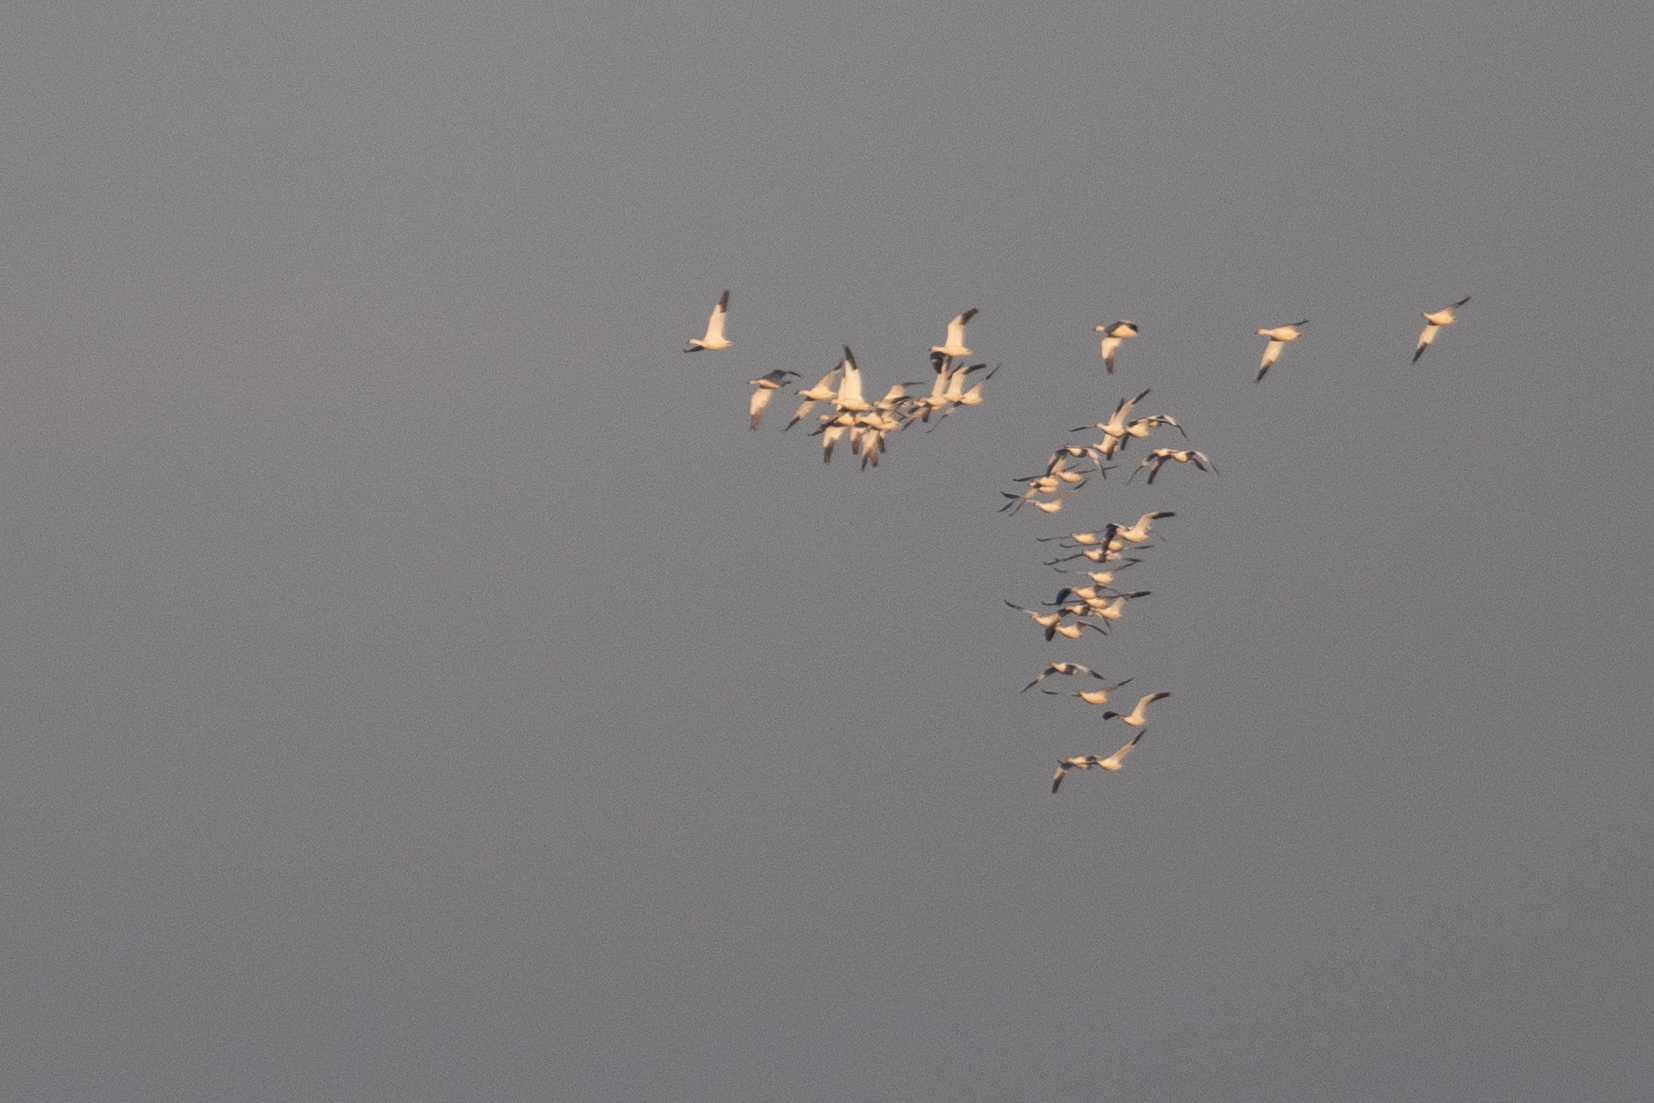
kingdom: Animalia
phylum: Chordata
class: Aves
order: Anseriformes
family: Anatidae
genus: Anser
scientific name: Anser caerulescens
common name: Snow goose
